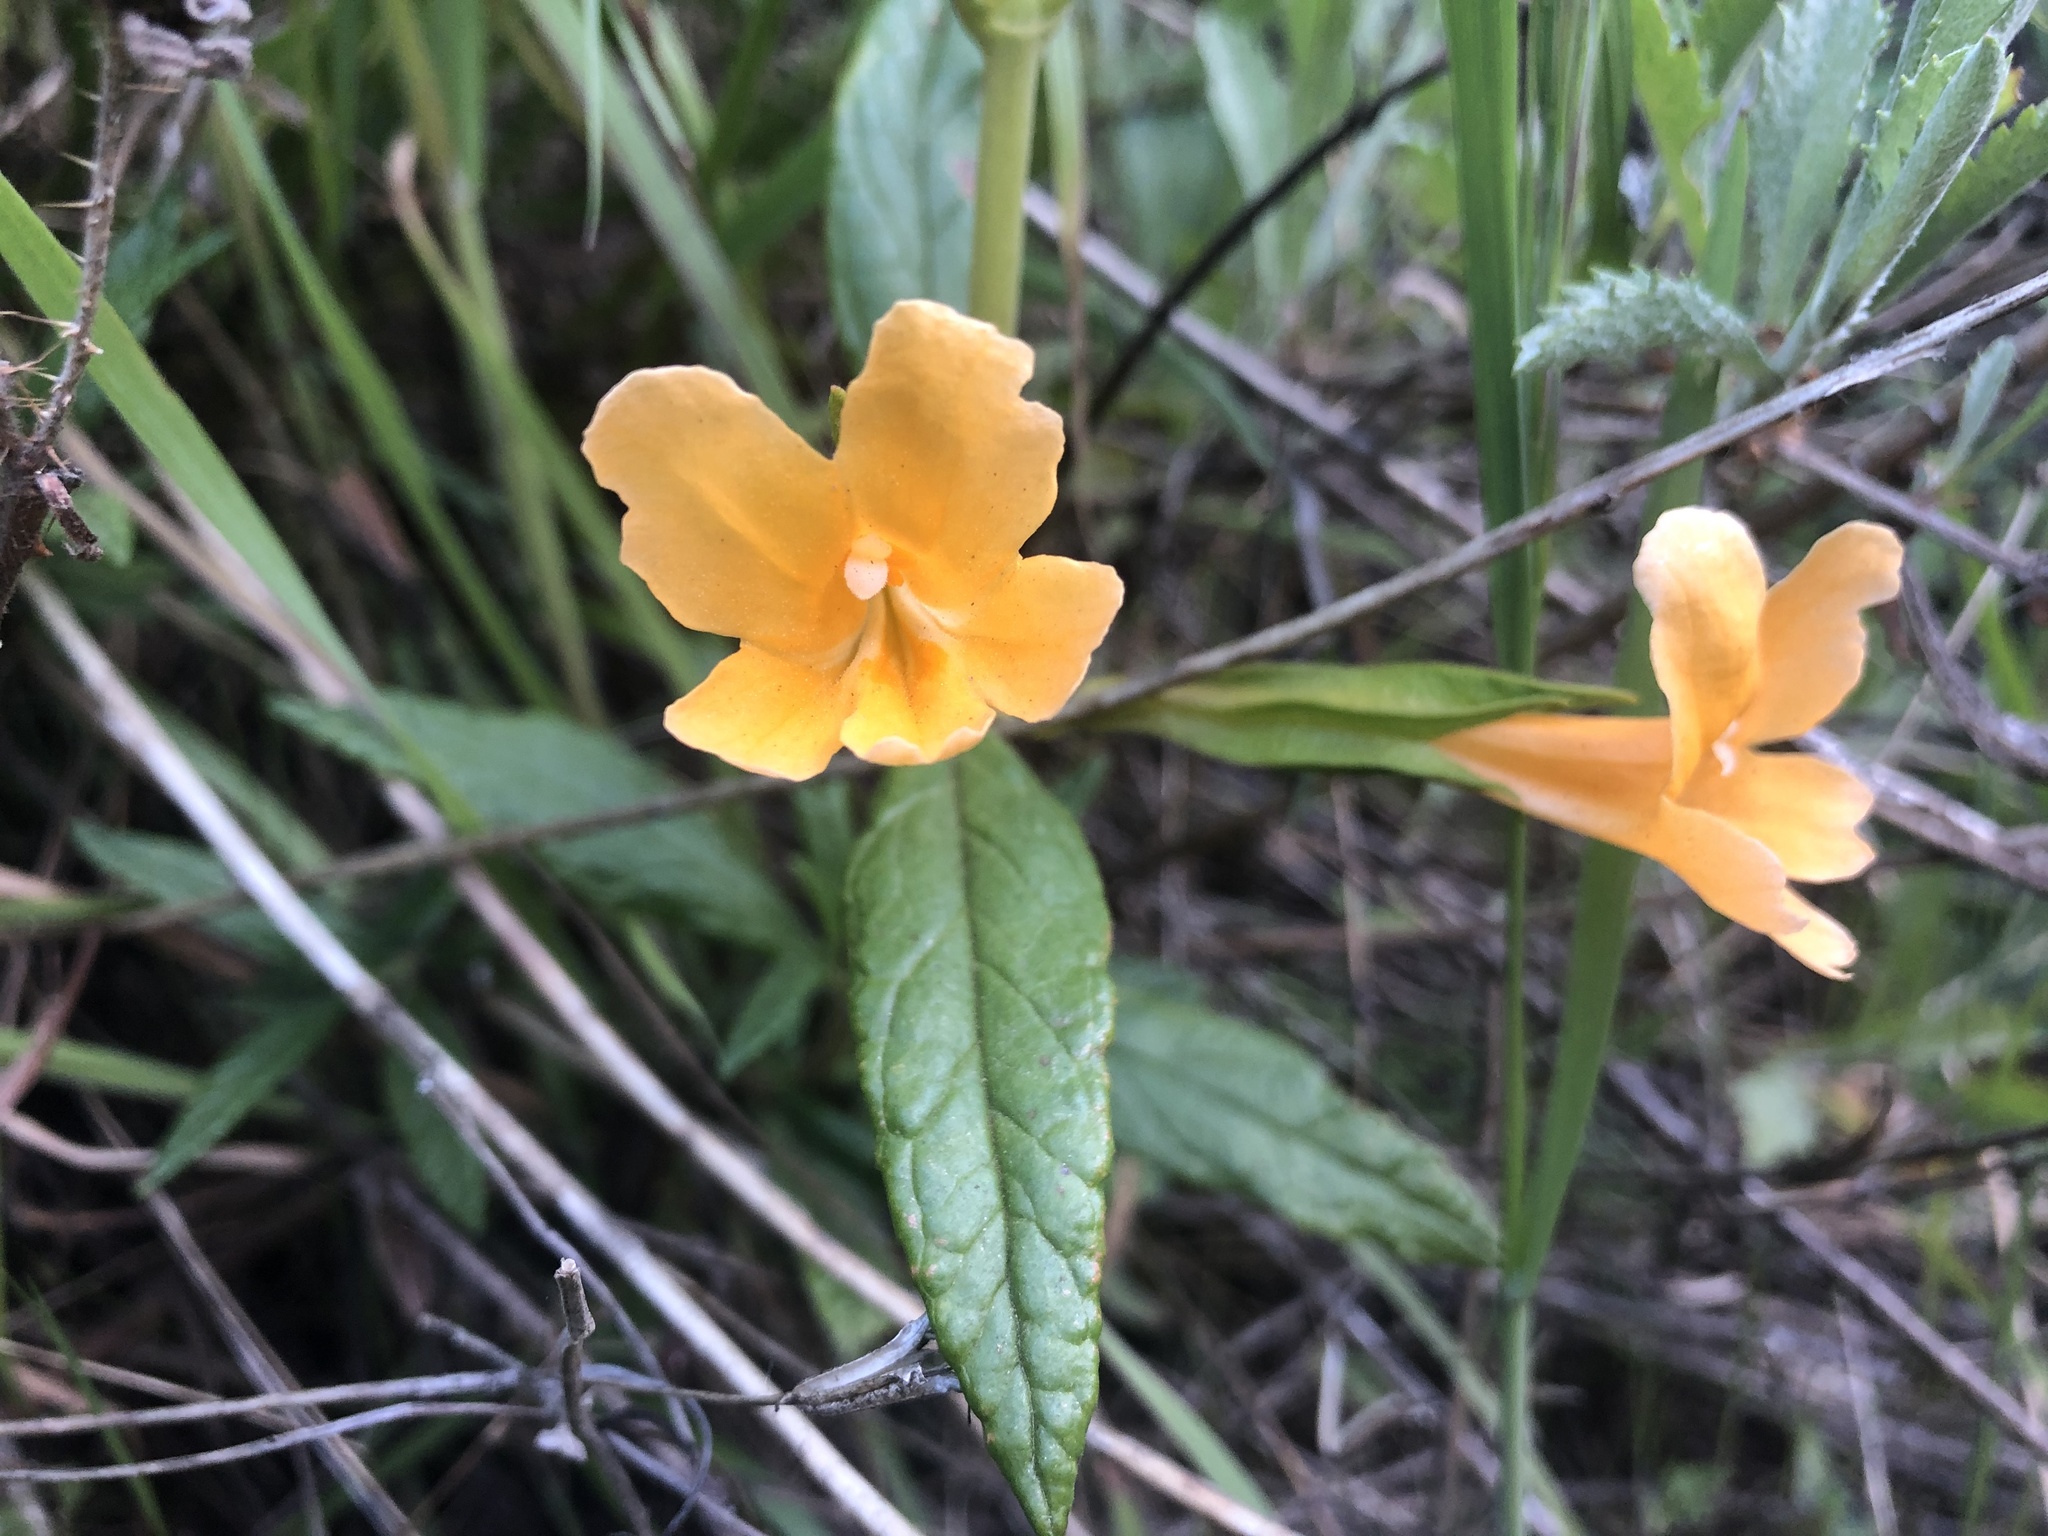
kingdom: Plantae
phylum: Tracheophyta
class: Magnoliopsida
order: Lamiales
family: Phrymaceae
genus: Diplacus
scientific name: Diplacus aurantiacus
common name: Bush monkey-flower
